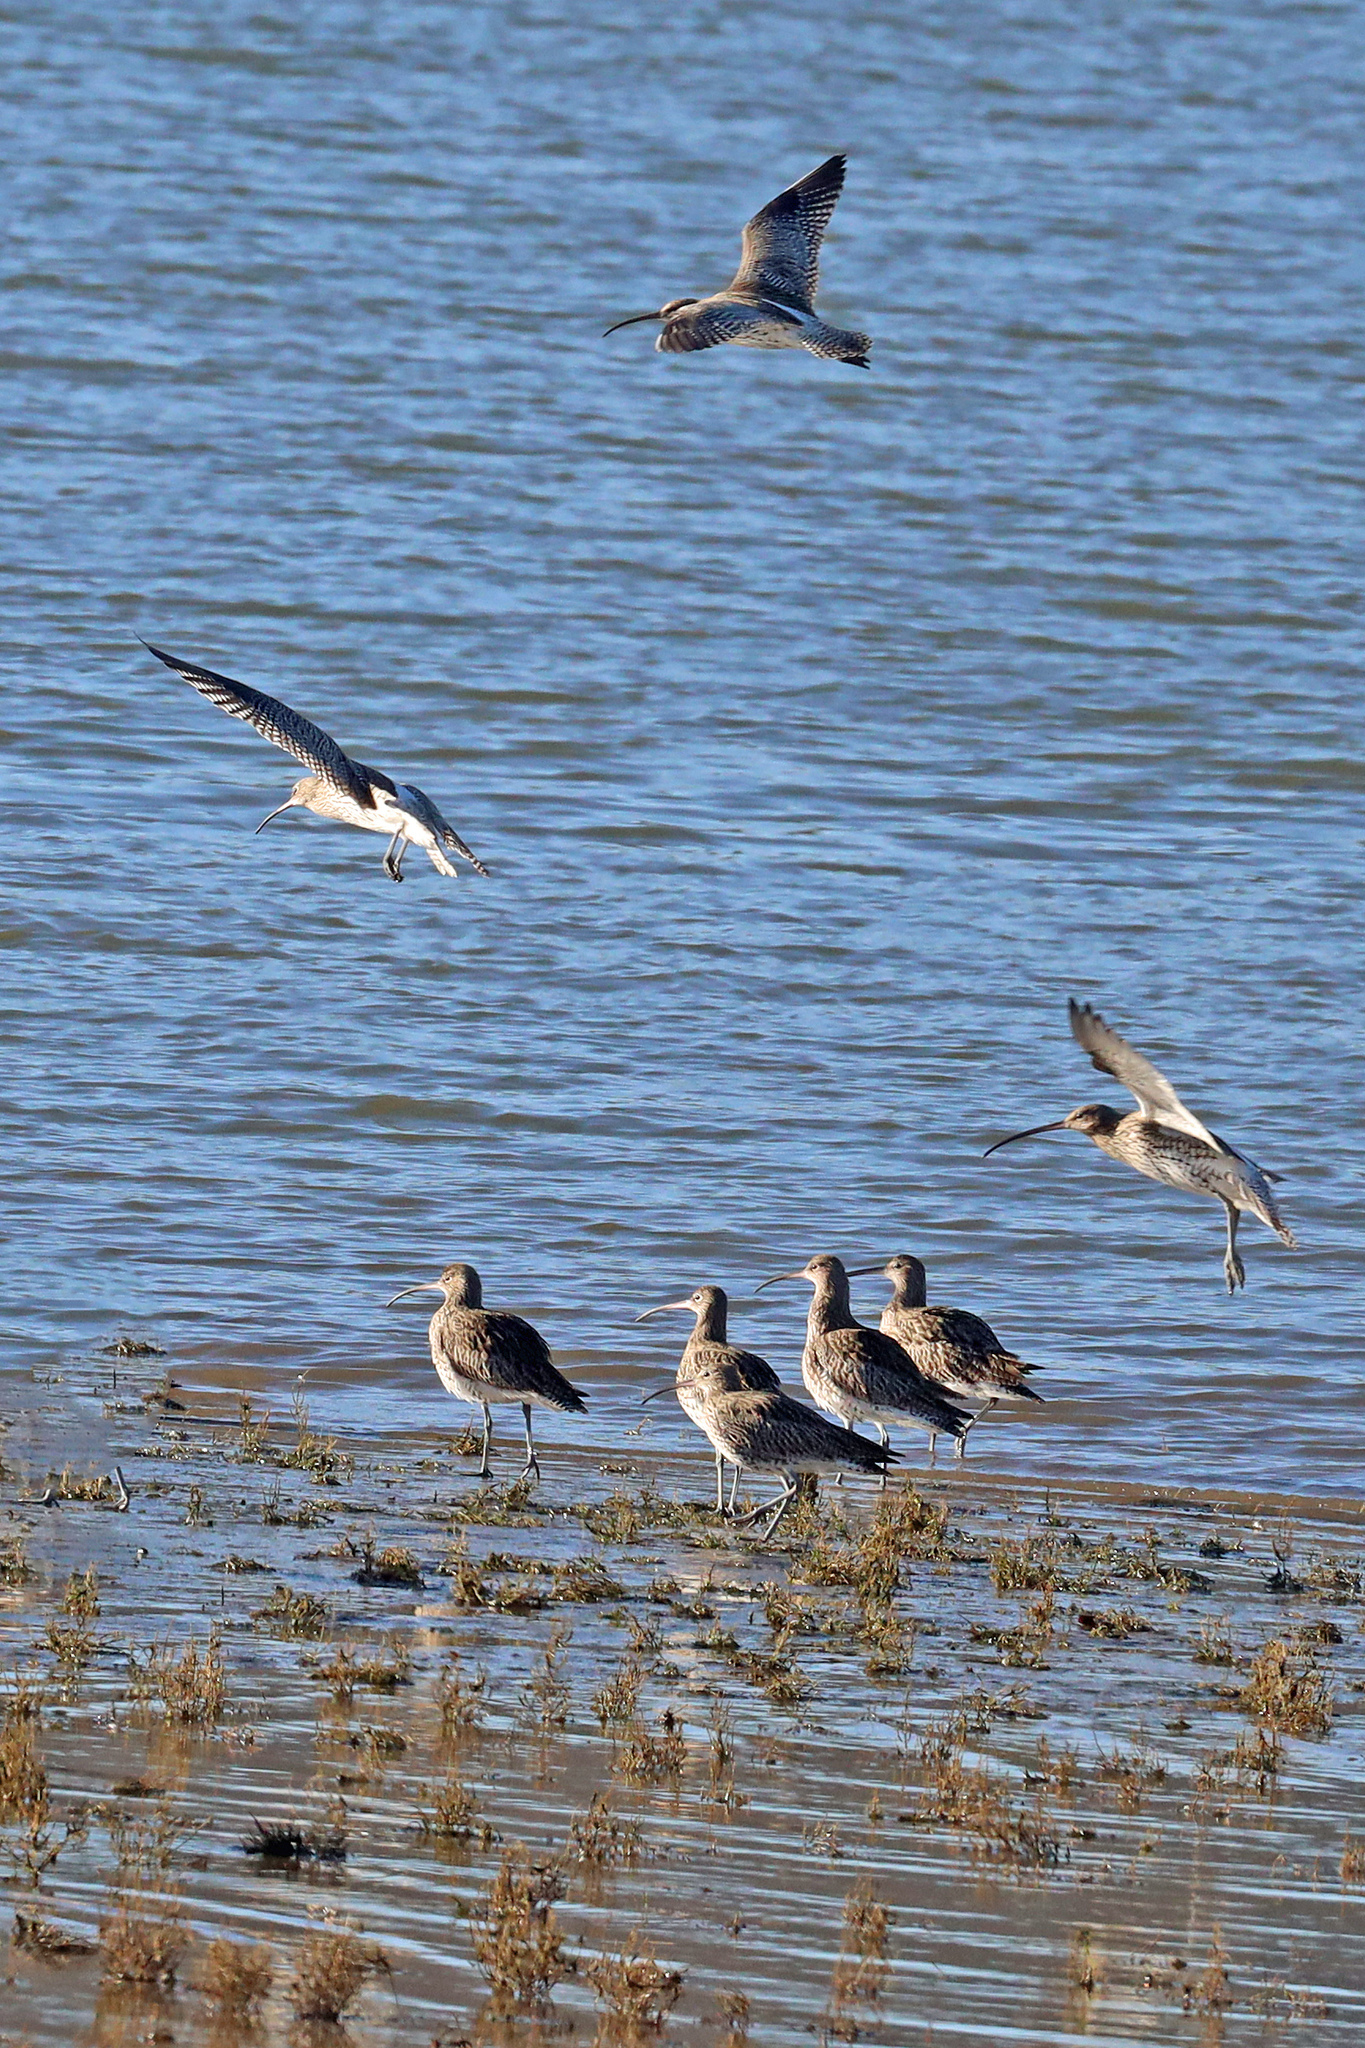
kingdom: Animalia
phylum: Chordata
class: Aves
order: Charadriiformes
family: Scolopacidae
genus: Numenius
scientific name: Numenius arquata
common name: Eurasian curlew
